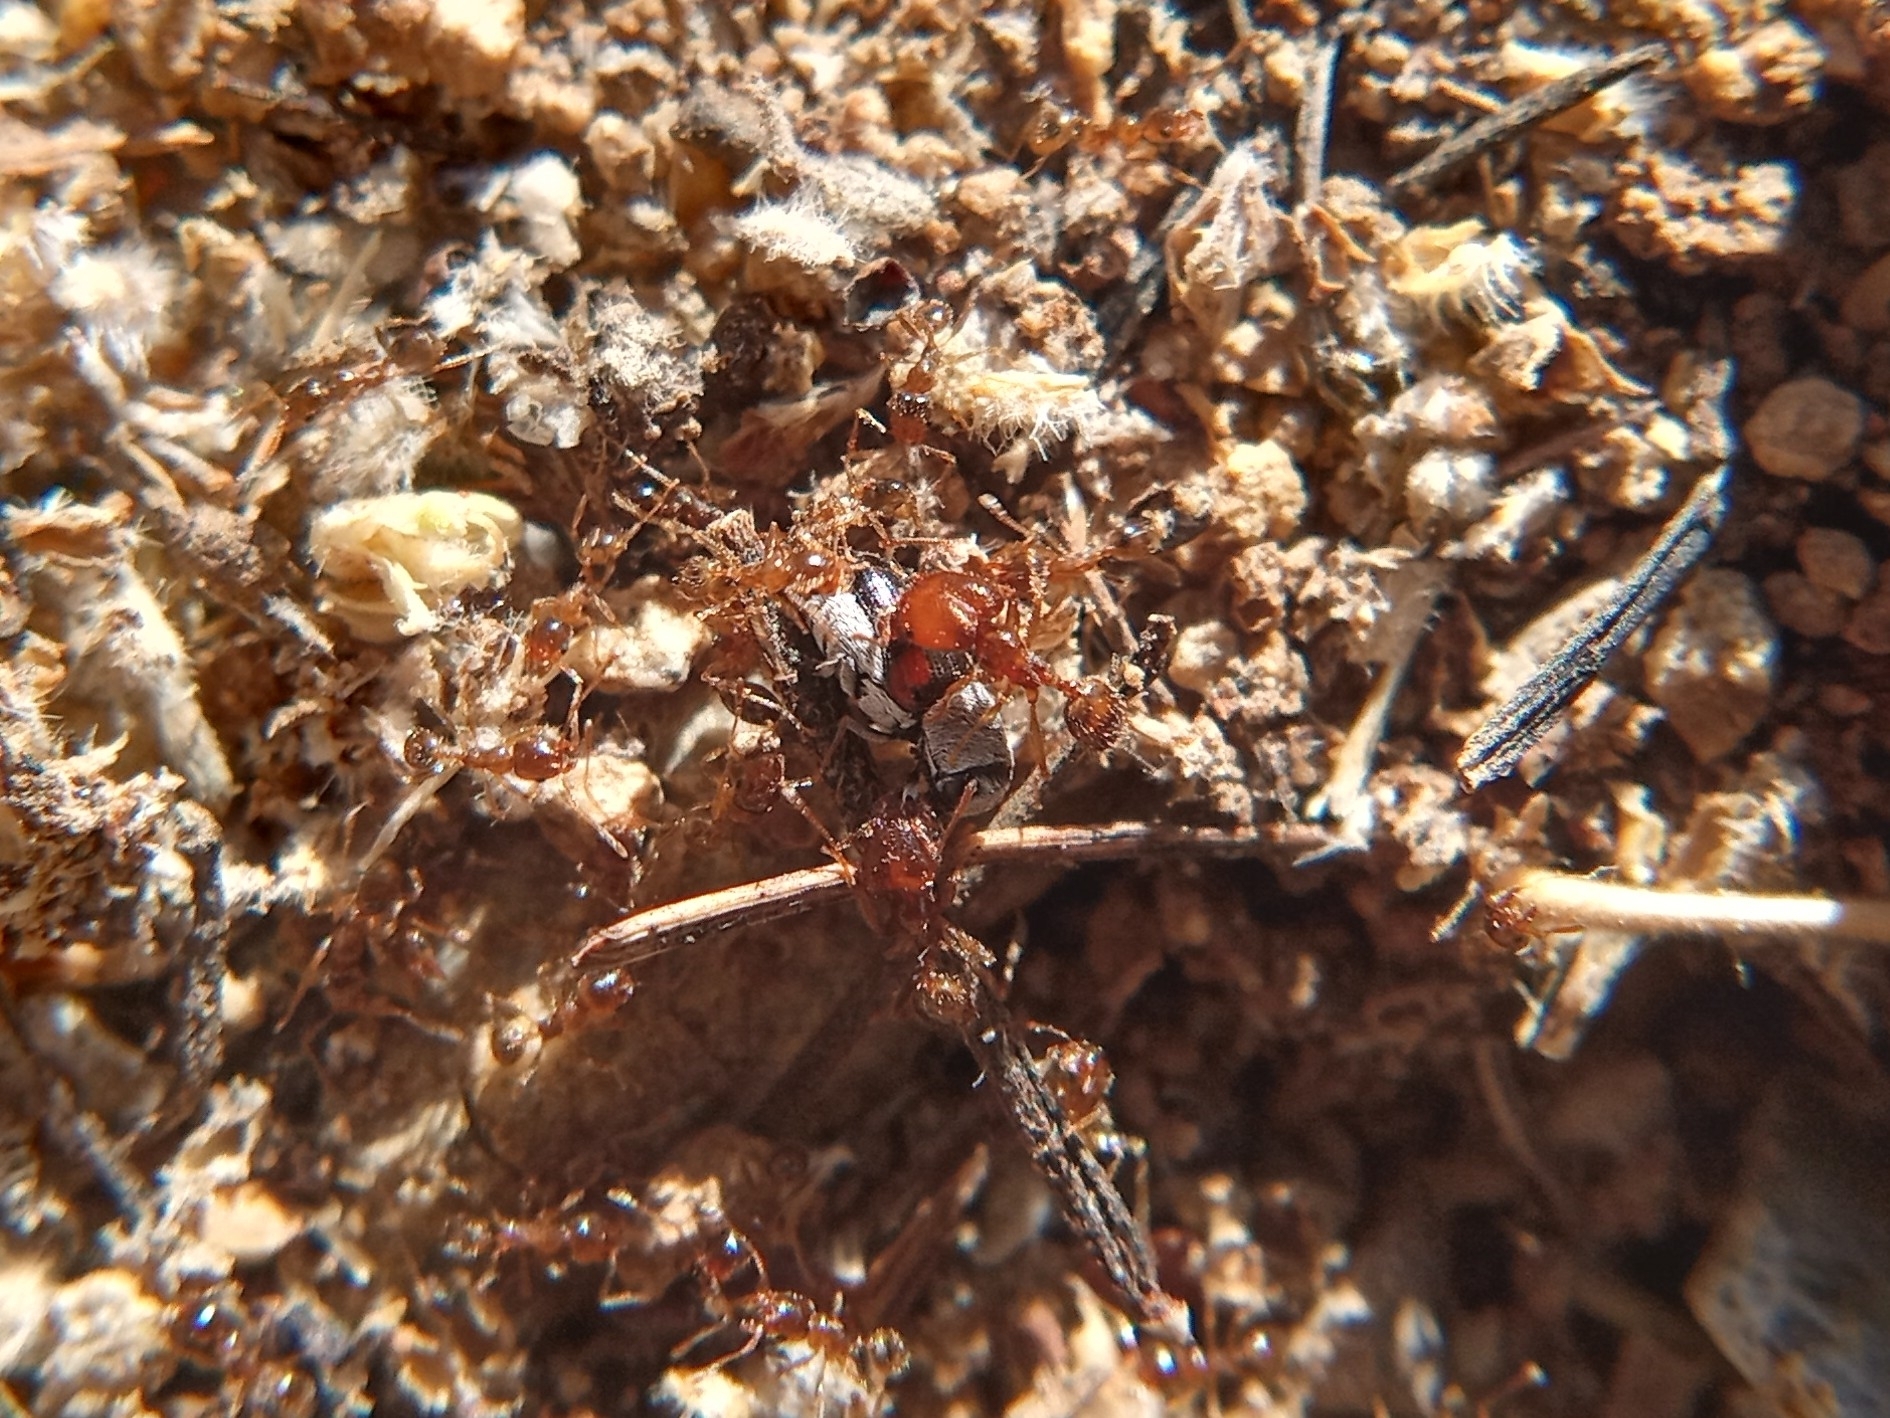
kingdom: Animalia
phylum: Arthropoda
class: Insecta
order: Hymenoptera
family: Formicidae
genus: Pheidole
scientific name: Pheidole tepicana
